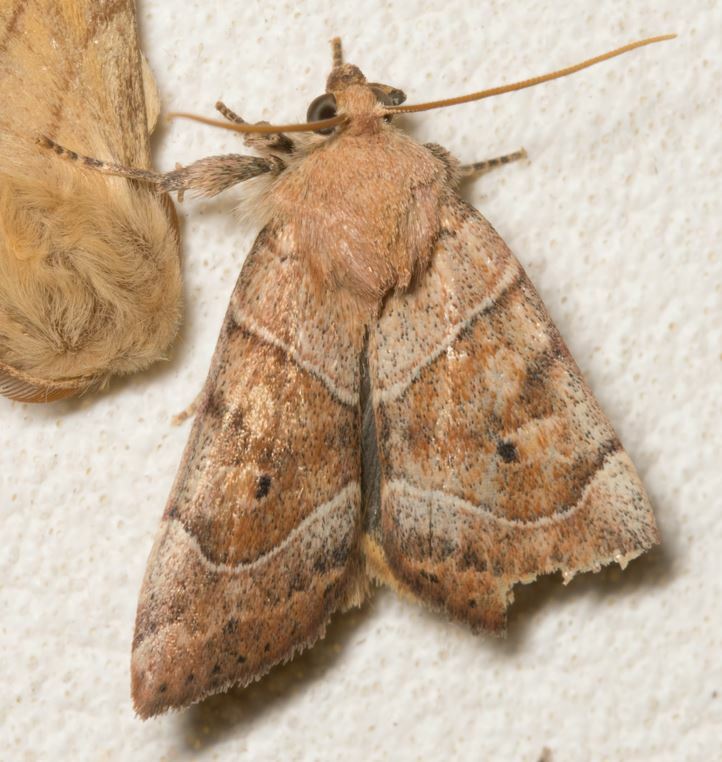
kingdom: Animalia
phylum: Arthropoda
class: Insecta
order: Lepidoptera
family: Noctuidae
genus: Cosmia
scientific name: Cosmia trapezina
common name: Dun-bar
